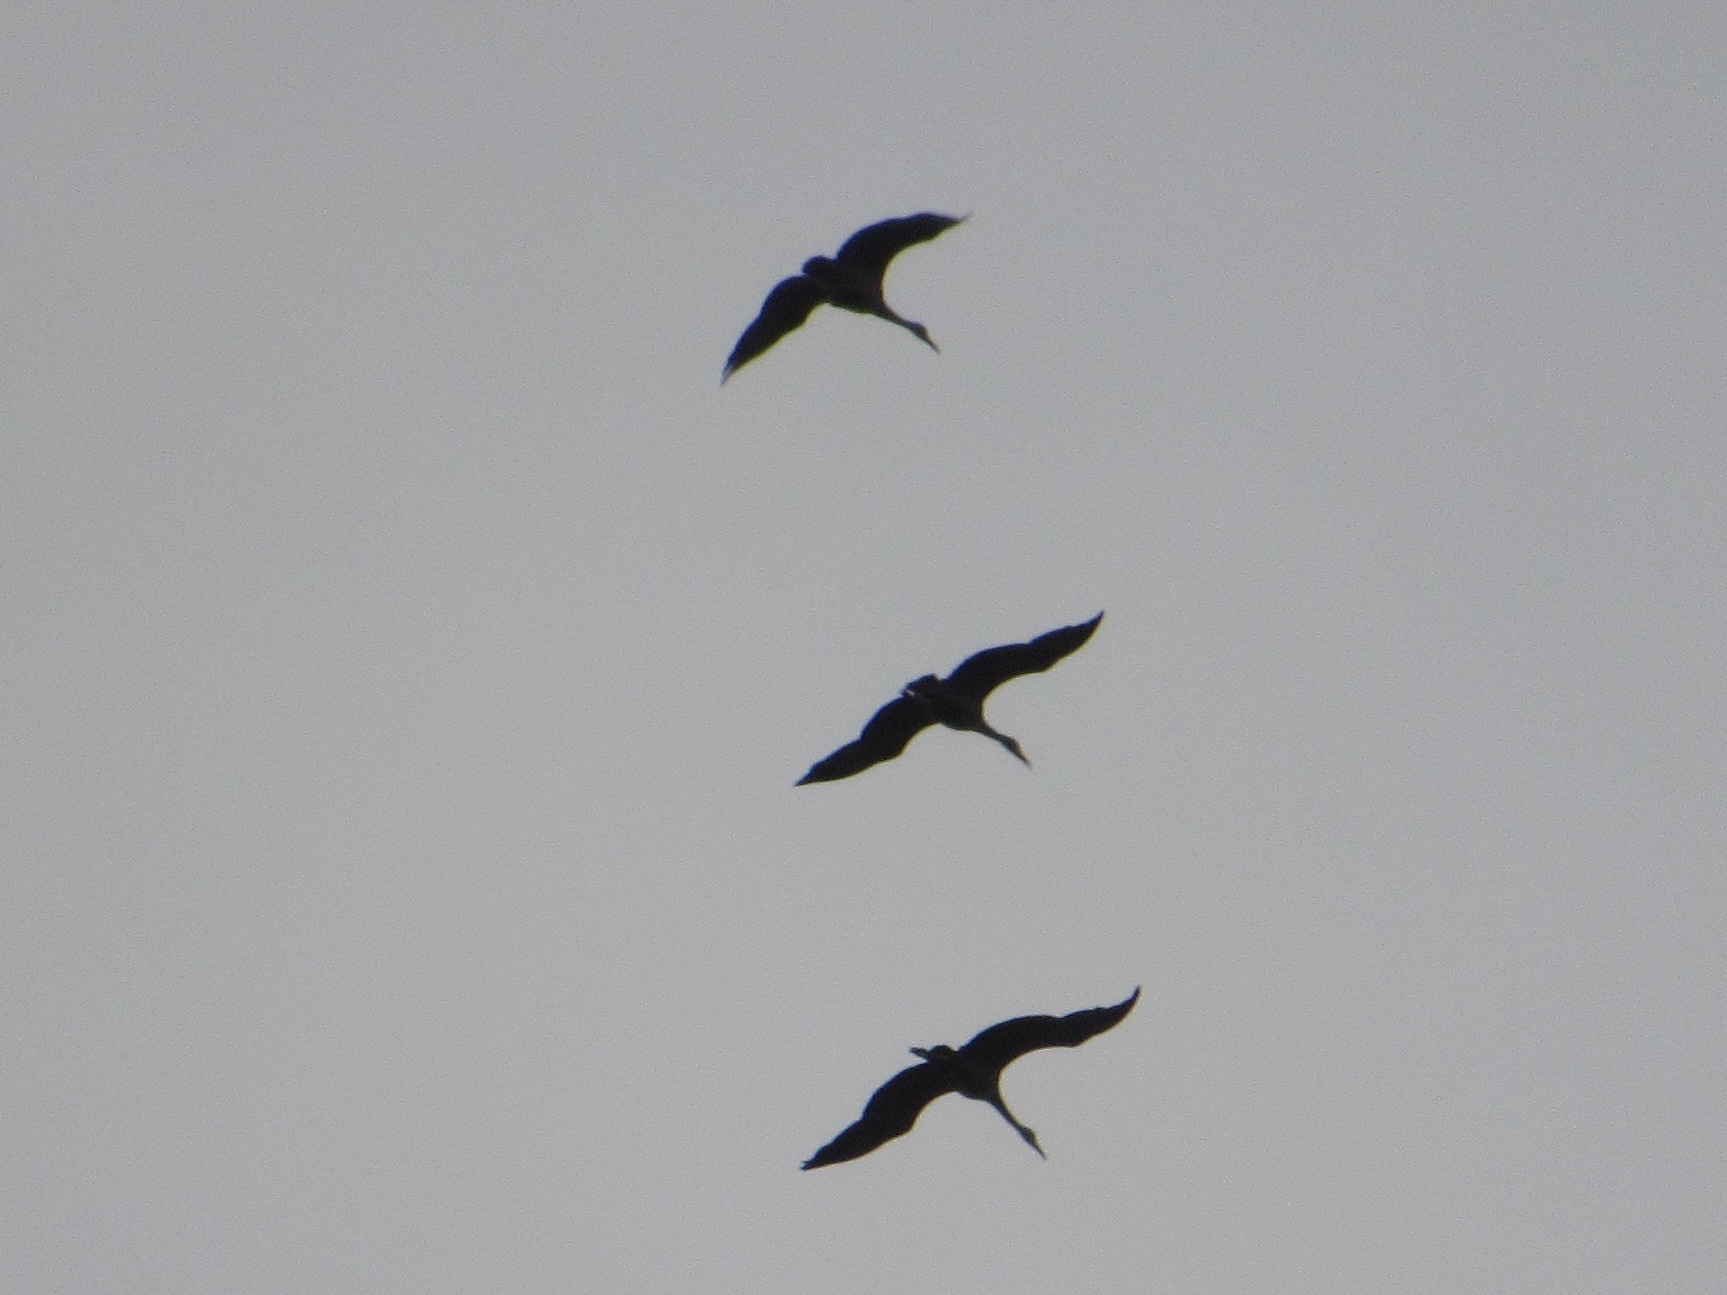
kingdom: Animalia
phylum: Chordata
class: Aves
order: Gruiformes
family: Gruidae
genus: Grus
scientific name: Grus canadensis
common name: Sandhill crane
